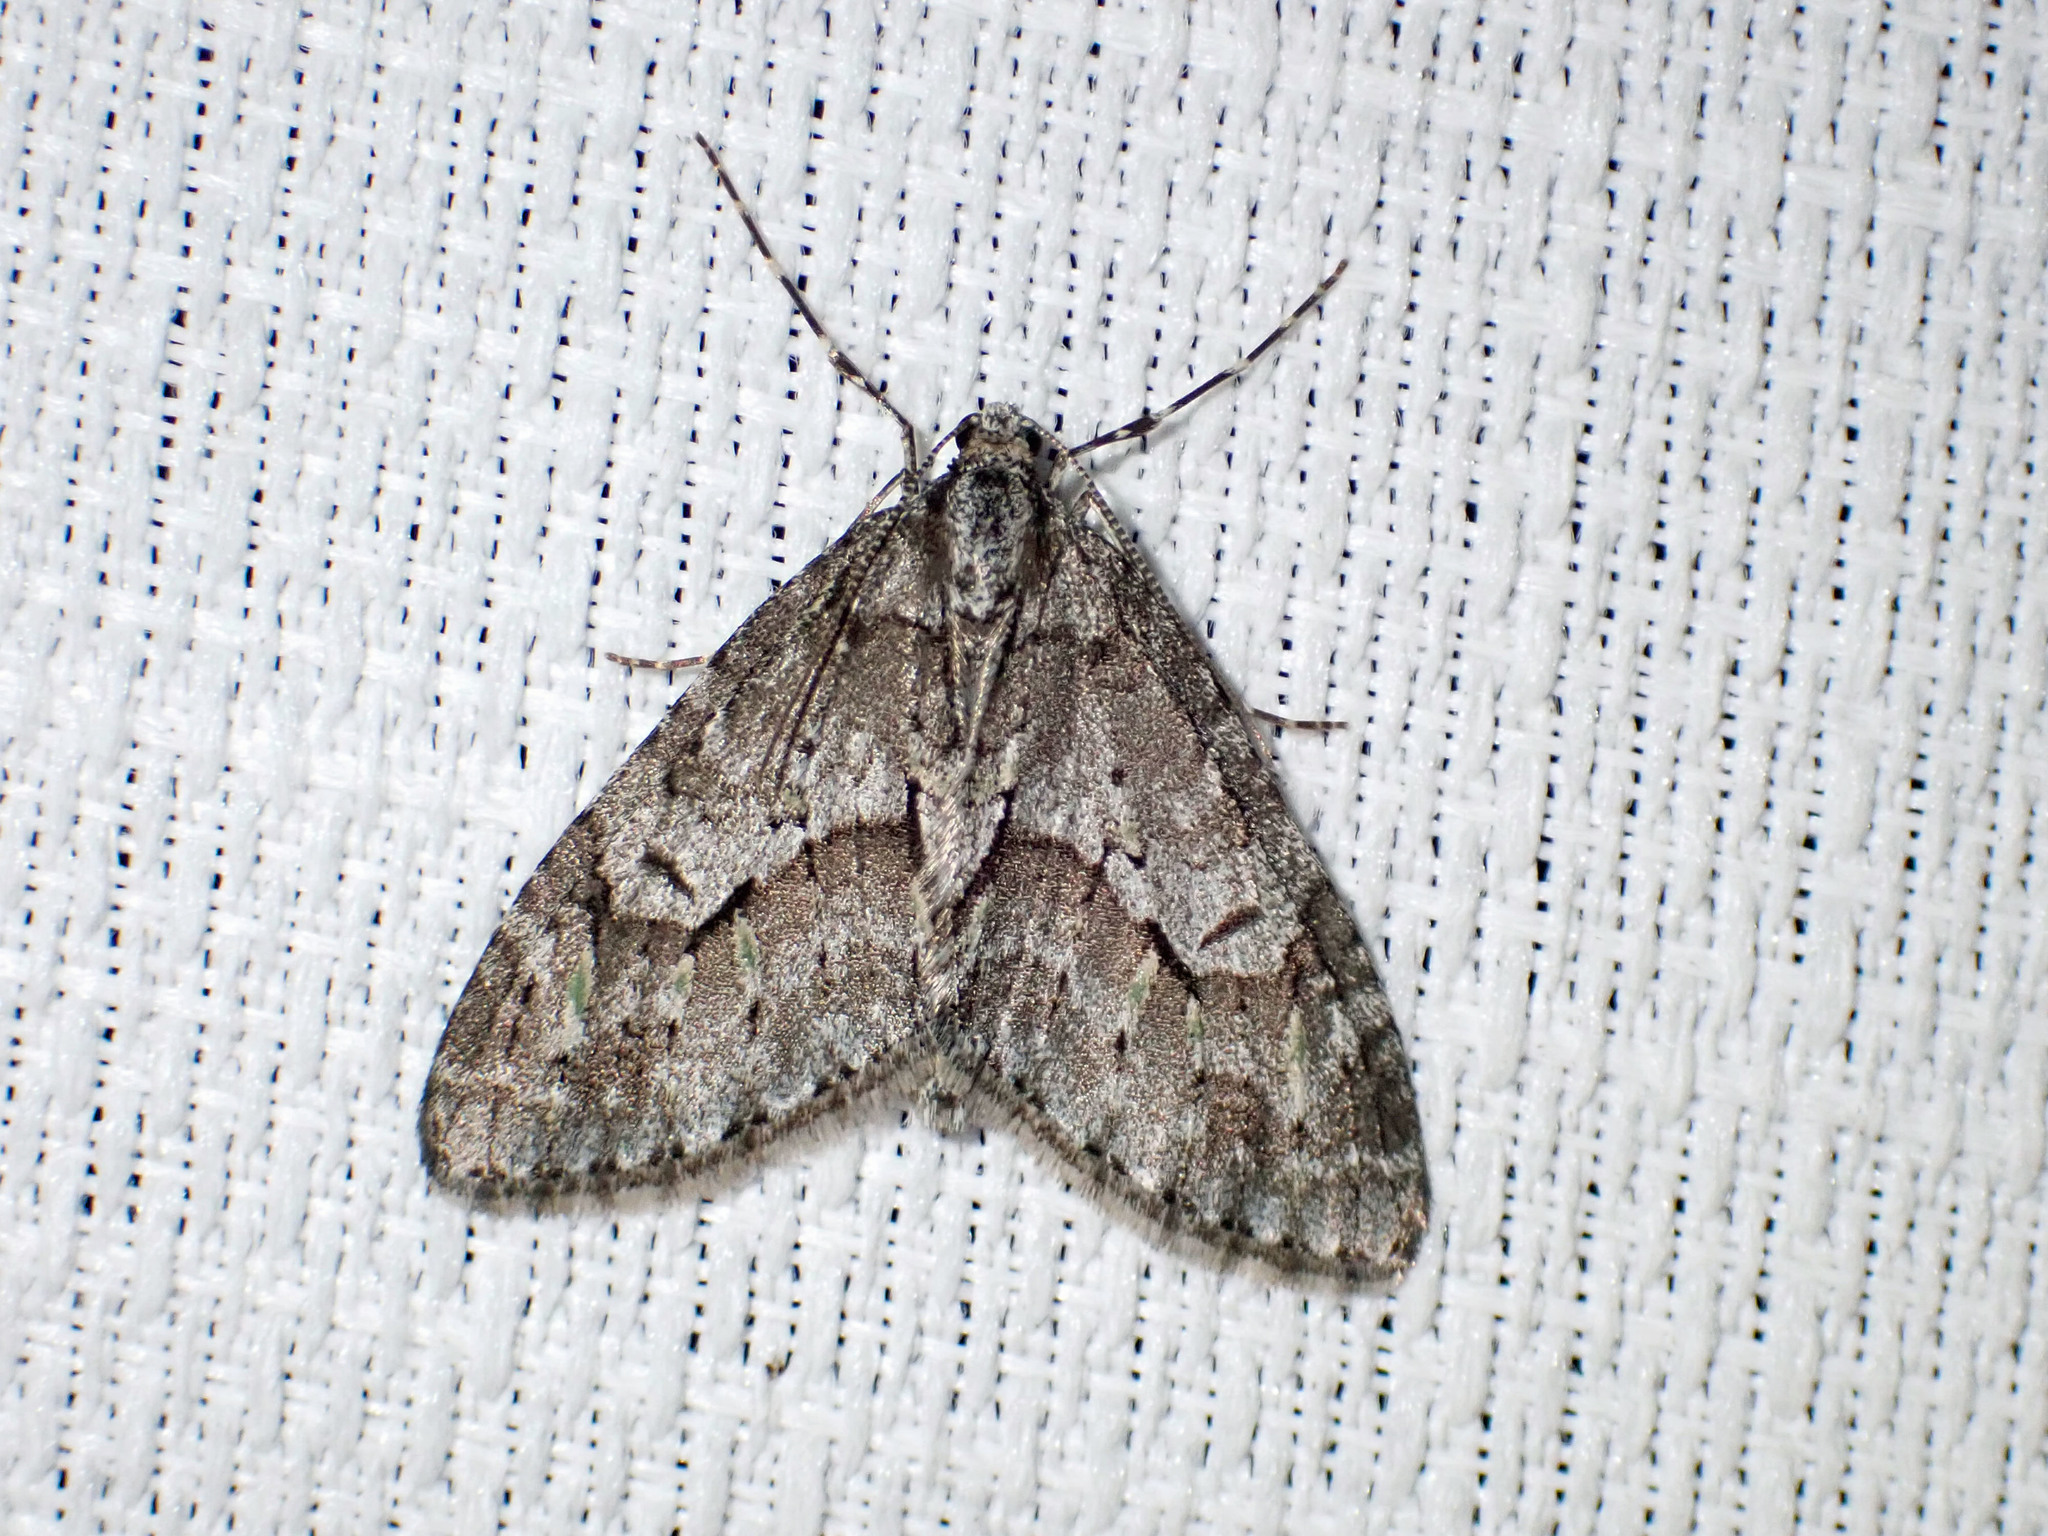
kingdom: Animalia
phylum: Arthropoda
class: Insecta
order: Lepidoptera
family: Geometridae
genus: Cladara
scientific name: Cladara limitaria
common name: Mottled gray carpet
